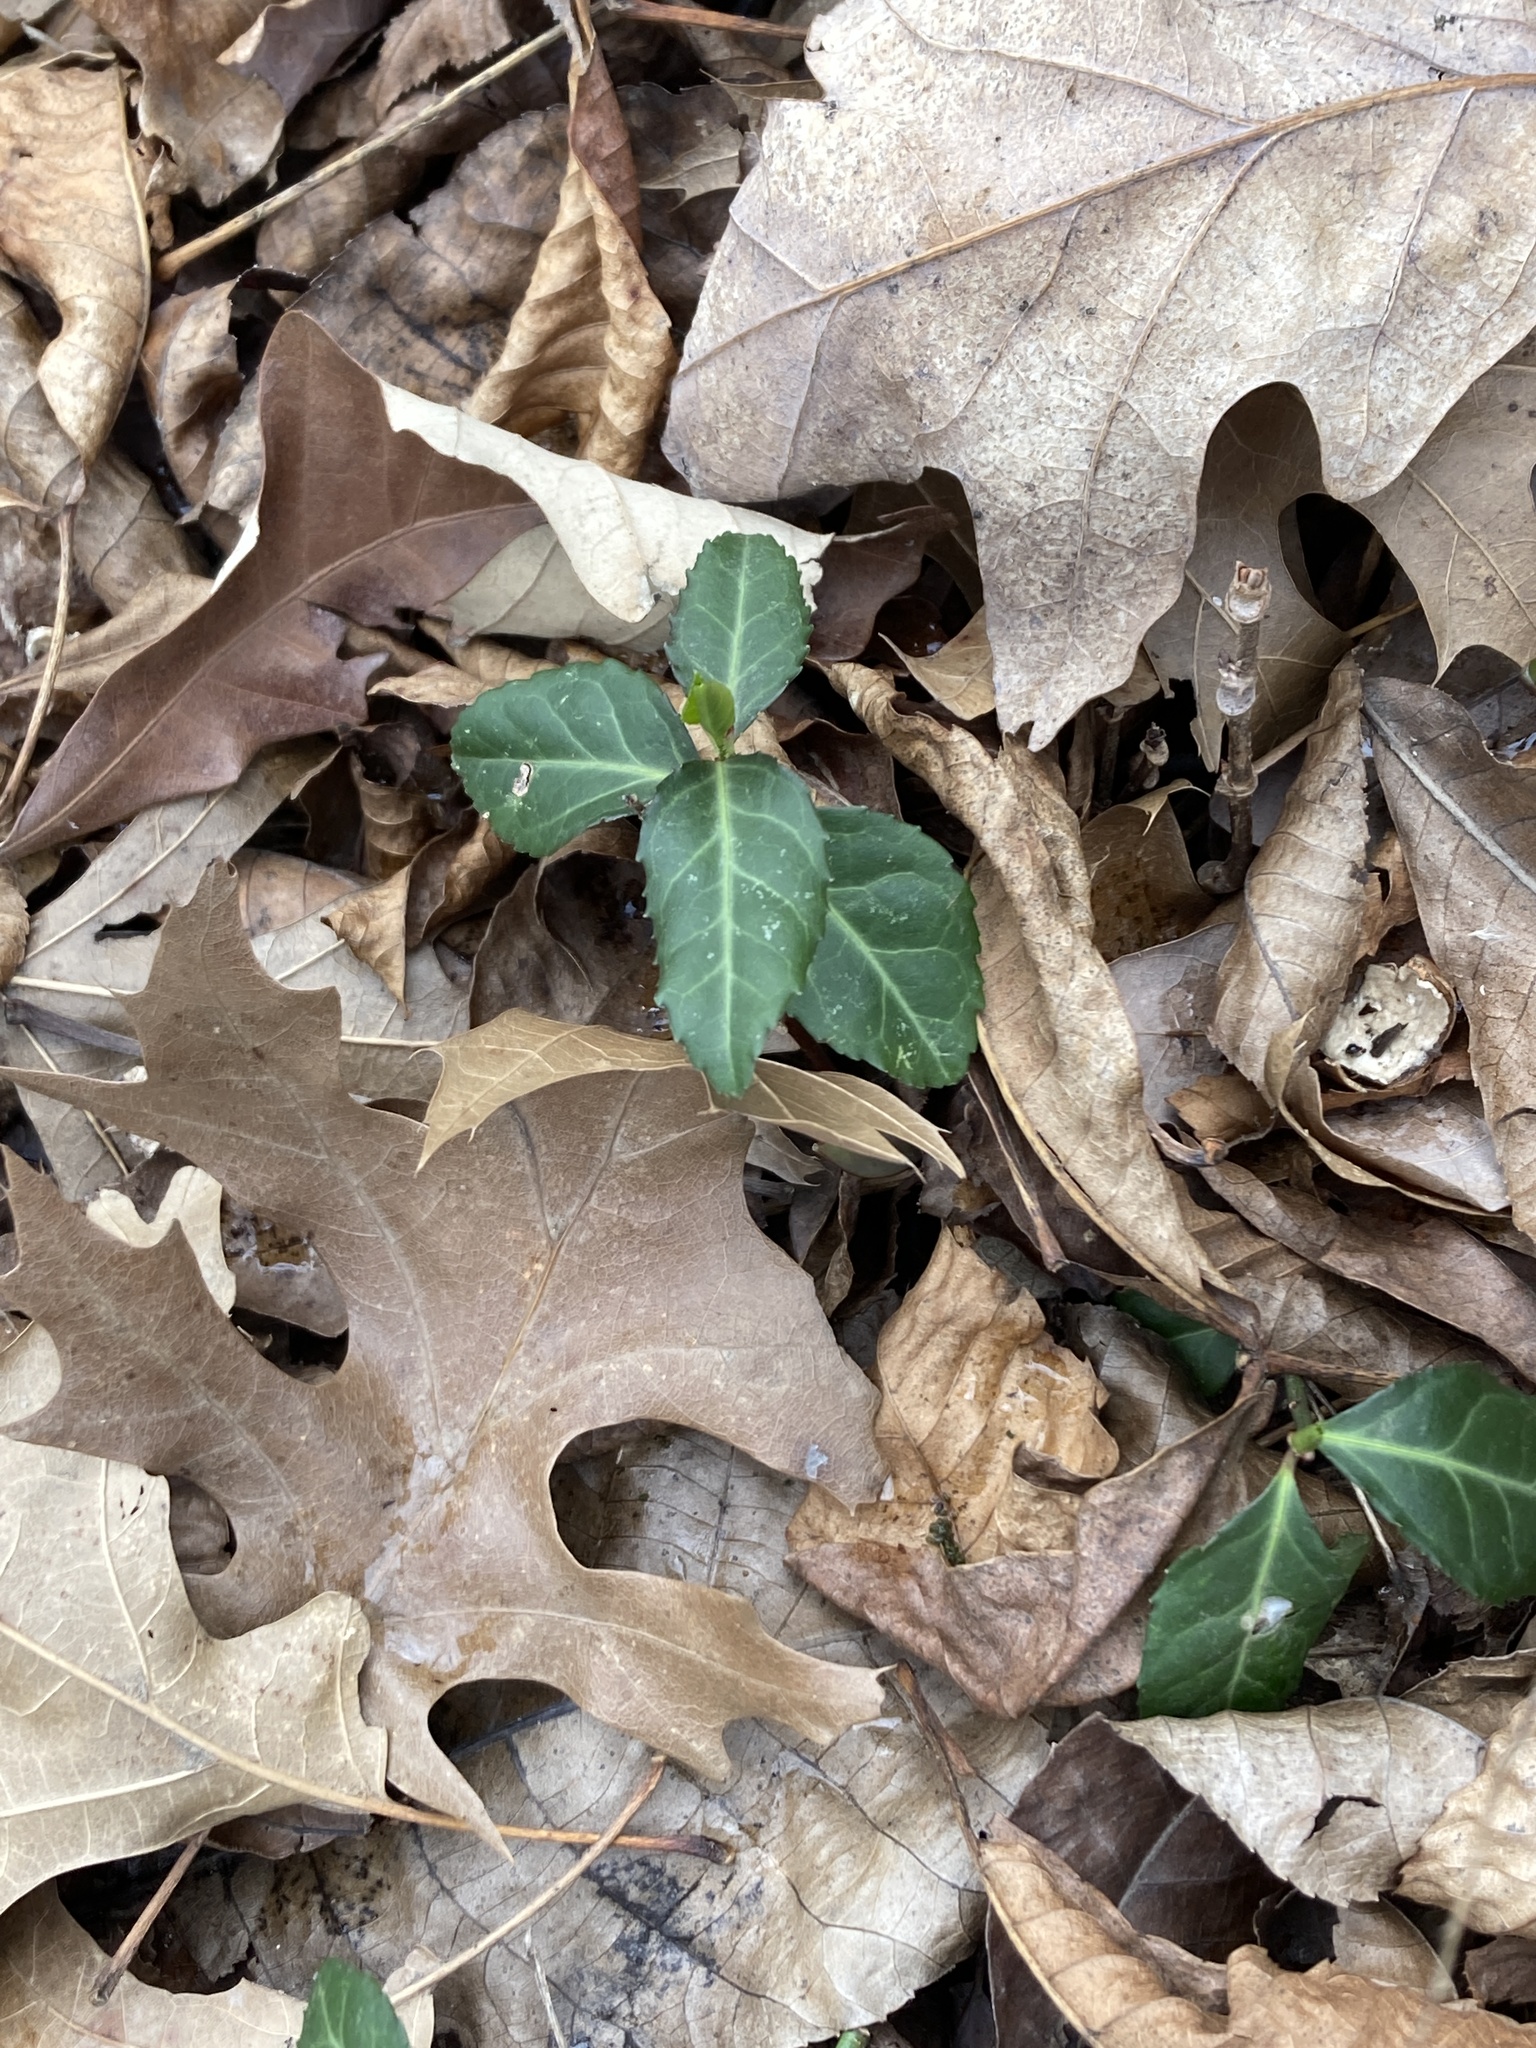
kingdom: Plantae
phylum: Tracheophyta
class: Magnoliopsida
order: Celastrales
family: Celastraceae
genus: Euonymus
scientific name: Euonymus fortunei
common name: Climbing euonymus
